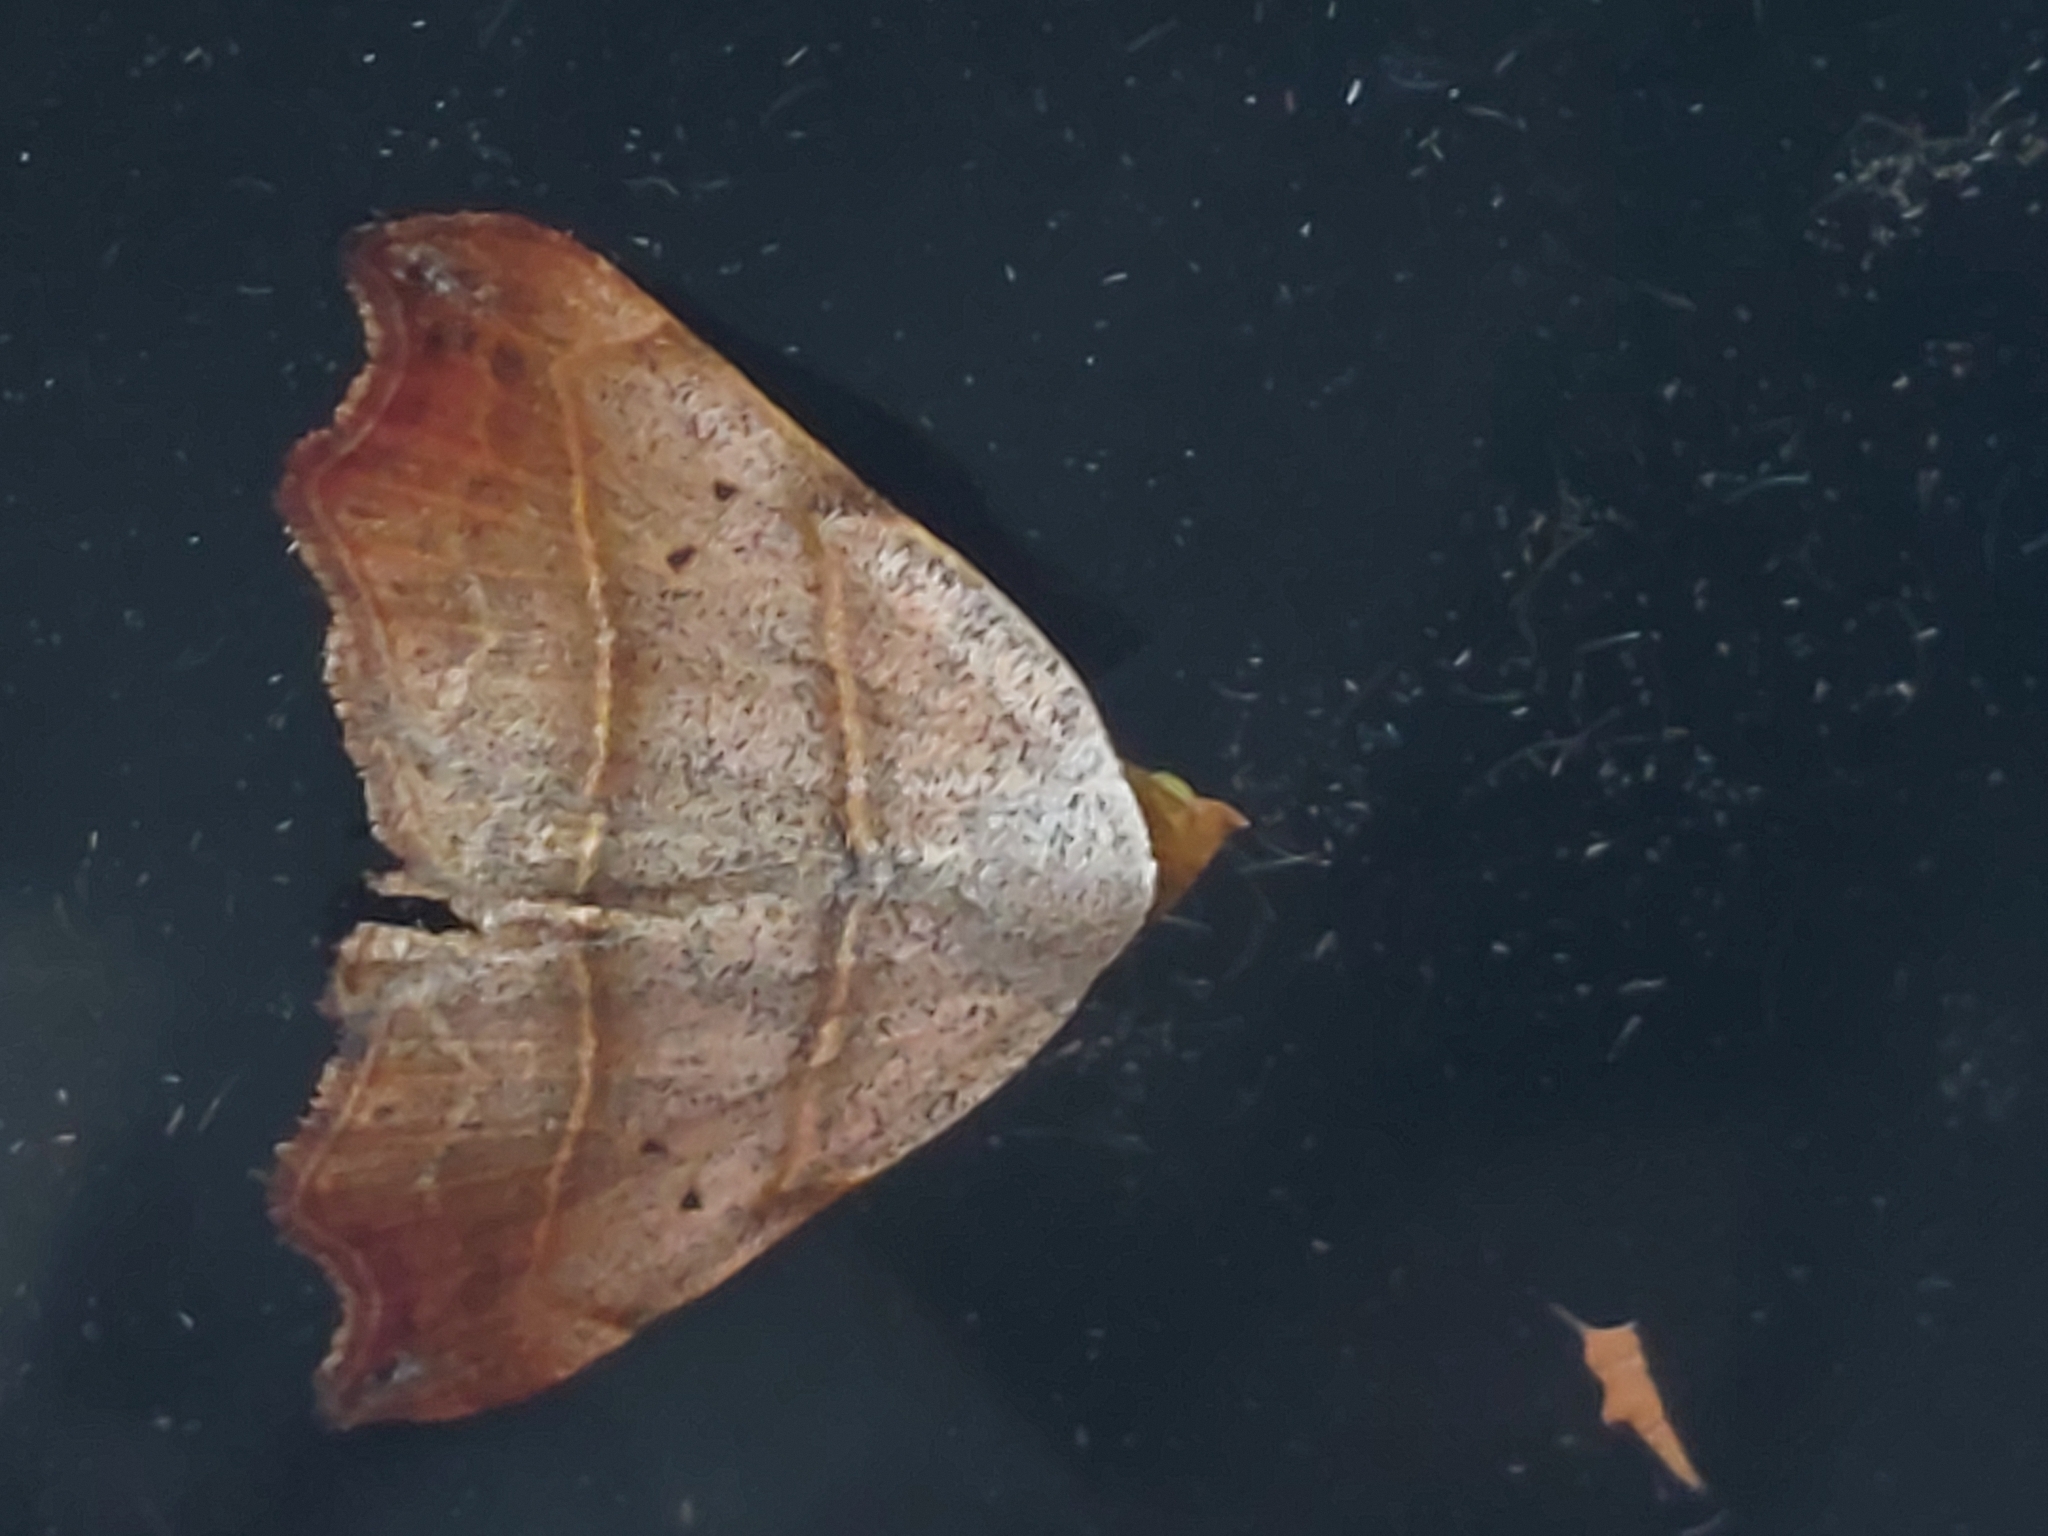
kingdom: Animalia
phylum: Arthropoda
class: Insecta
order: Lepidoptera
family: Erebidae
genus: Laspeyria
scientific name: Laspeyria flexula
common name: Beautiful hook-tip
